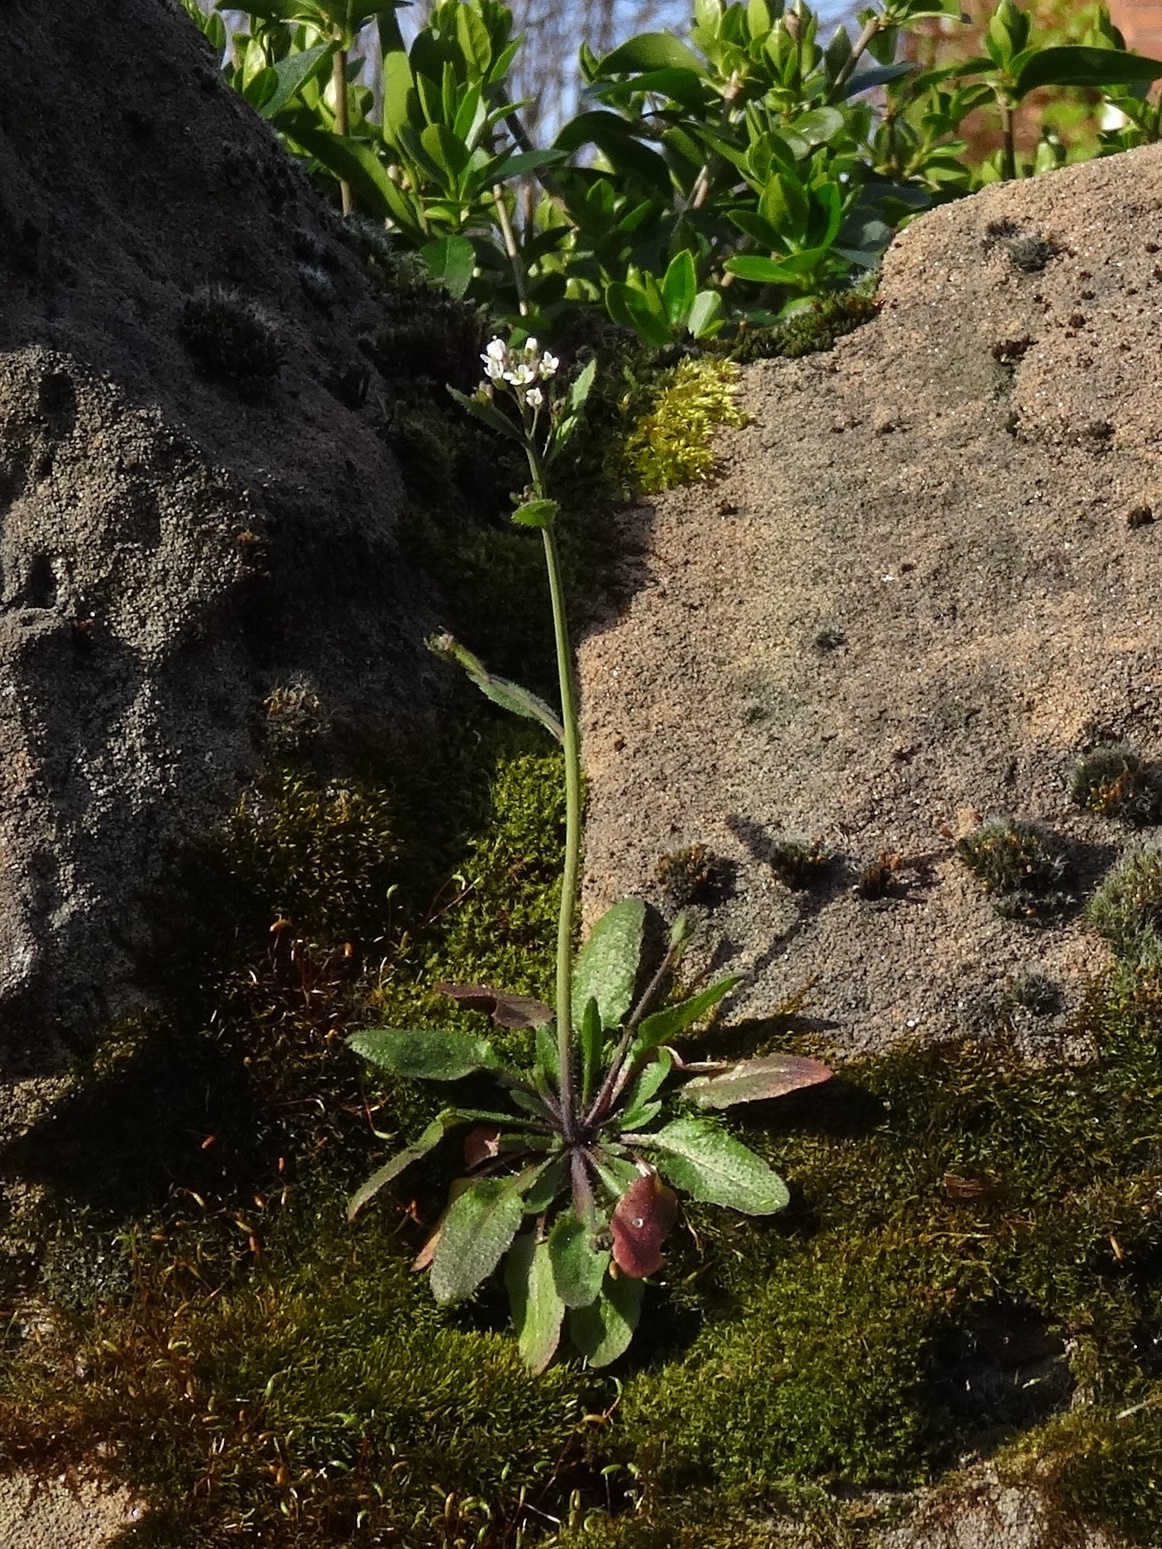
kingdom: Plantae
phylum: Tracheophyta
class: Magnoliopsida
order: Brassicales
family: Brassicaceae
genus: Arabidopsis
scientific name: Arabidopsis thaliana
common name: Thale cress
